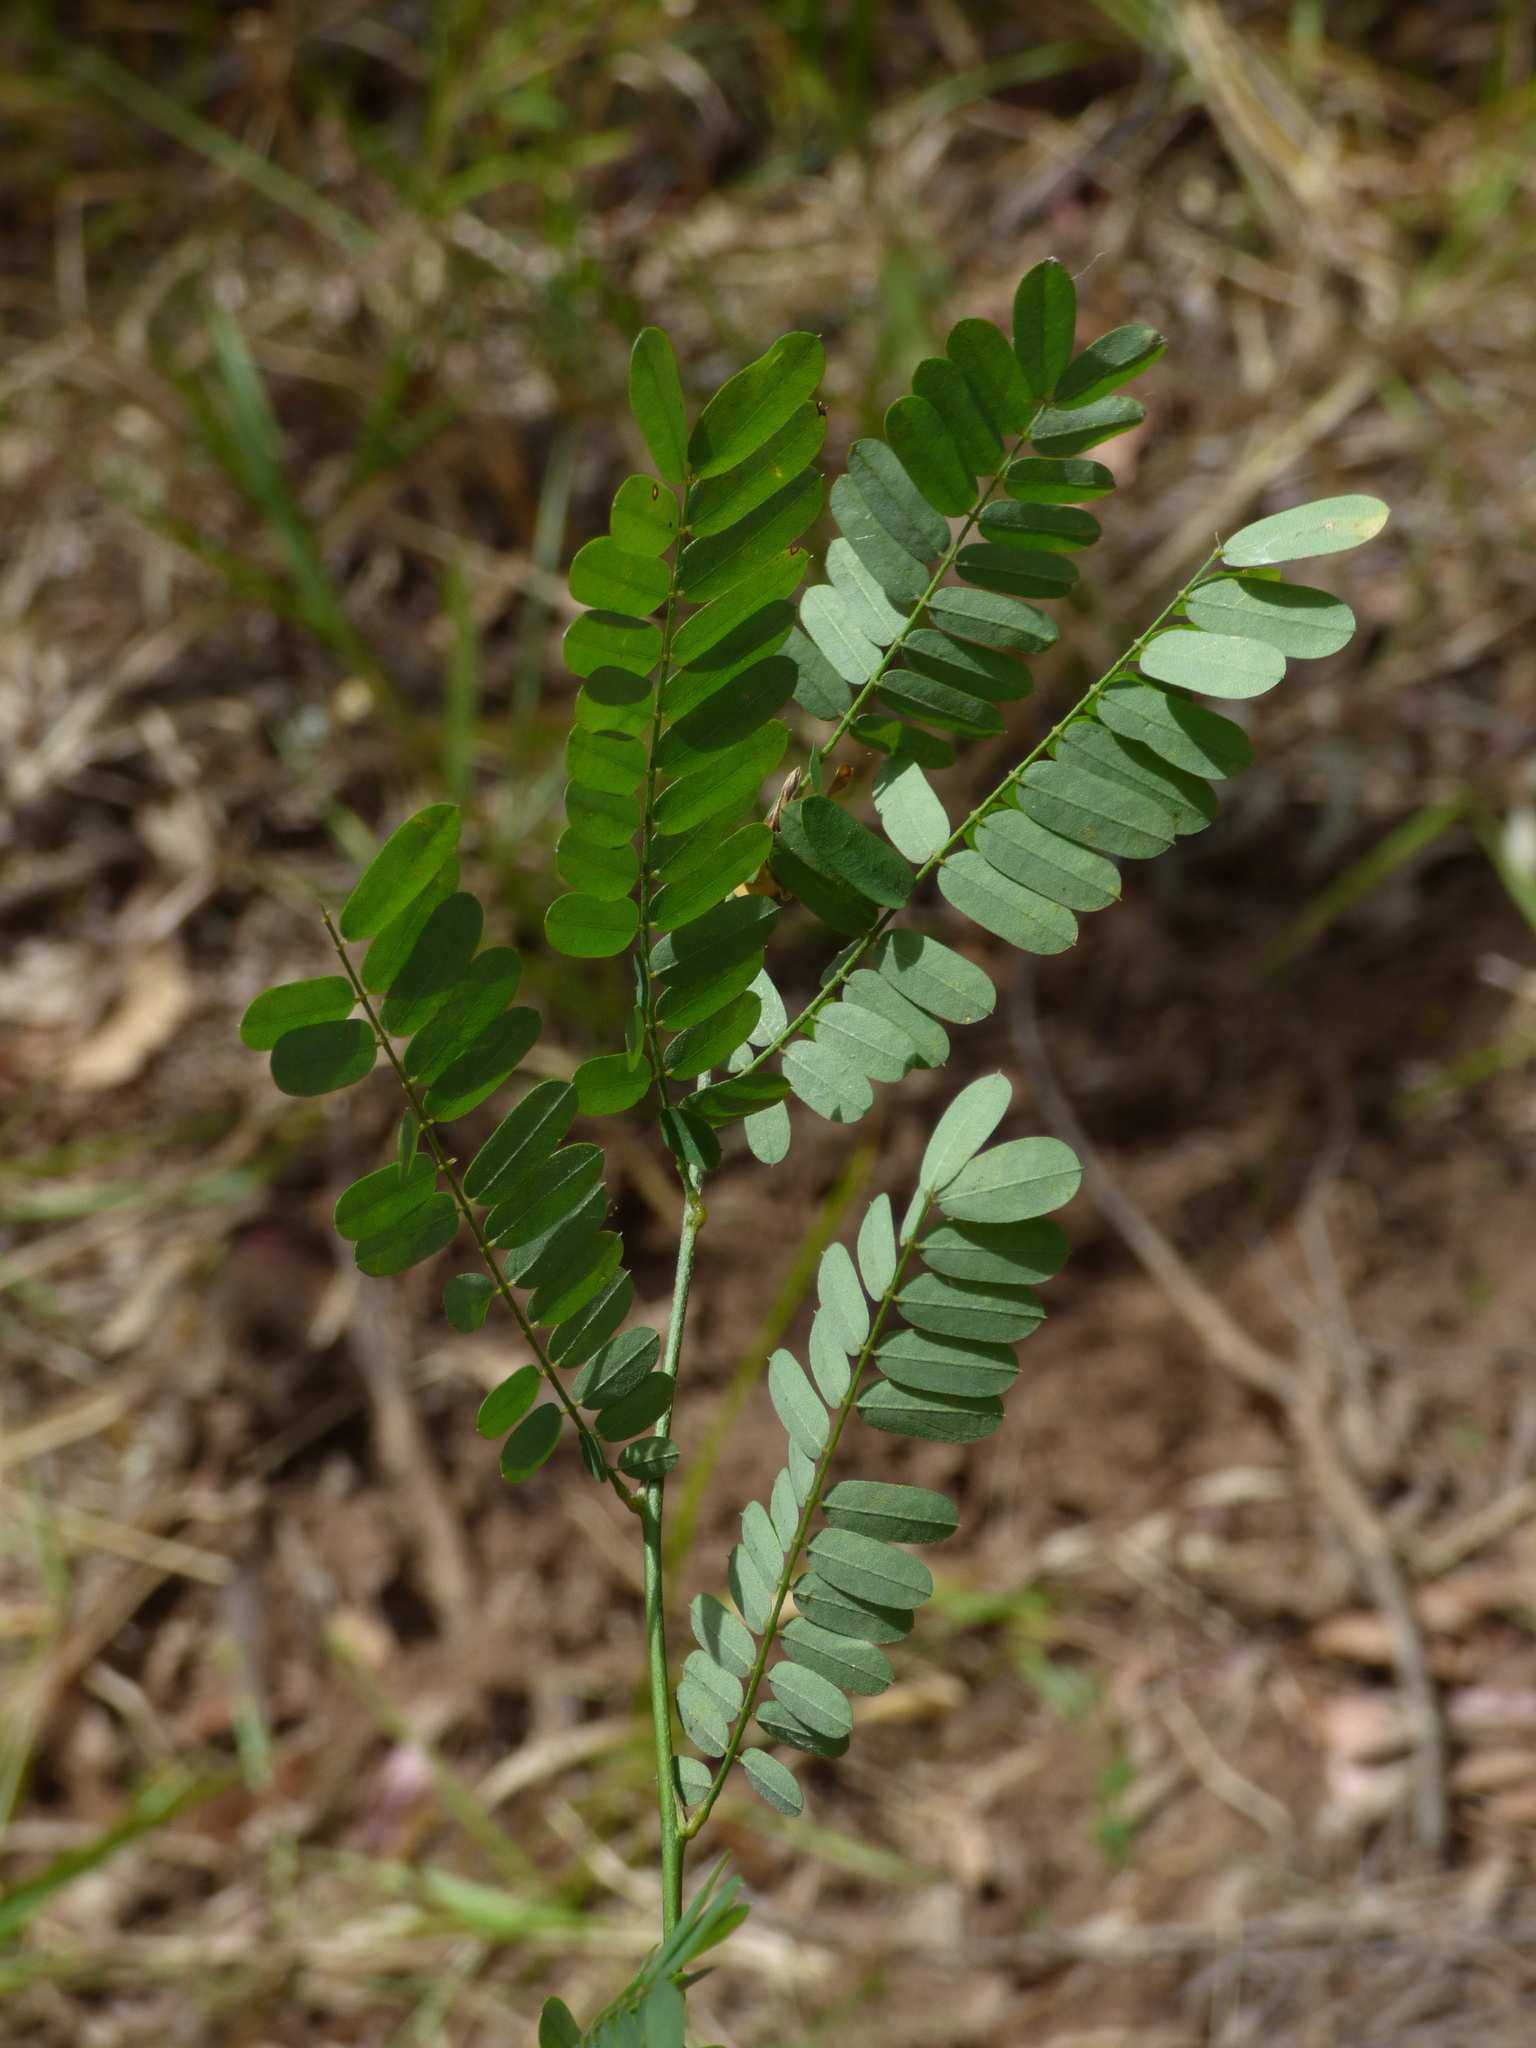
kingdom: Plantae
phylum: Tracheophyta
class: Magnoliopsida
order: Fabales
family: Fabaceae
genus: Abrus
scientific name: Abrus precatorius
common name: Rosarypea
